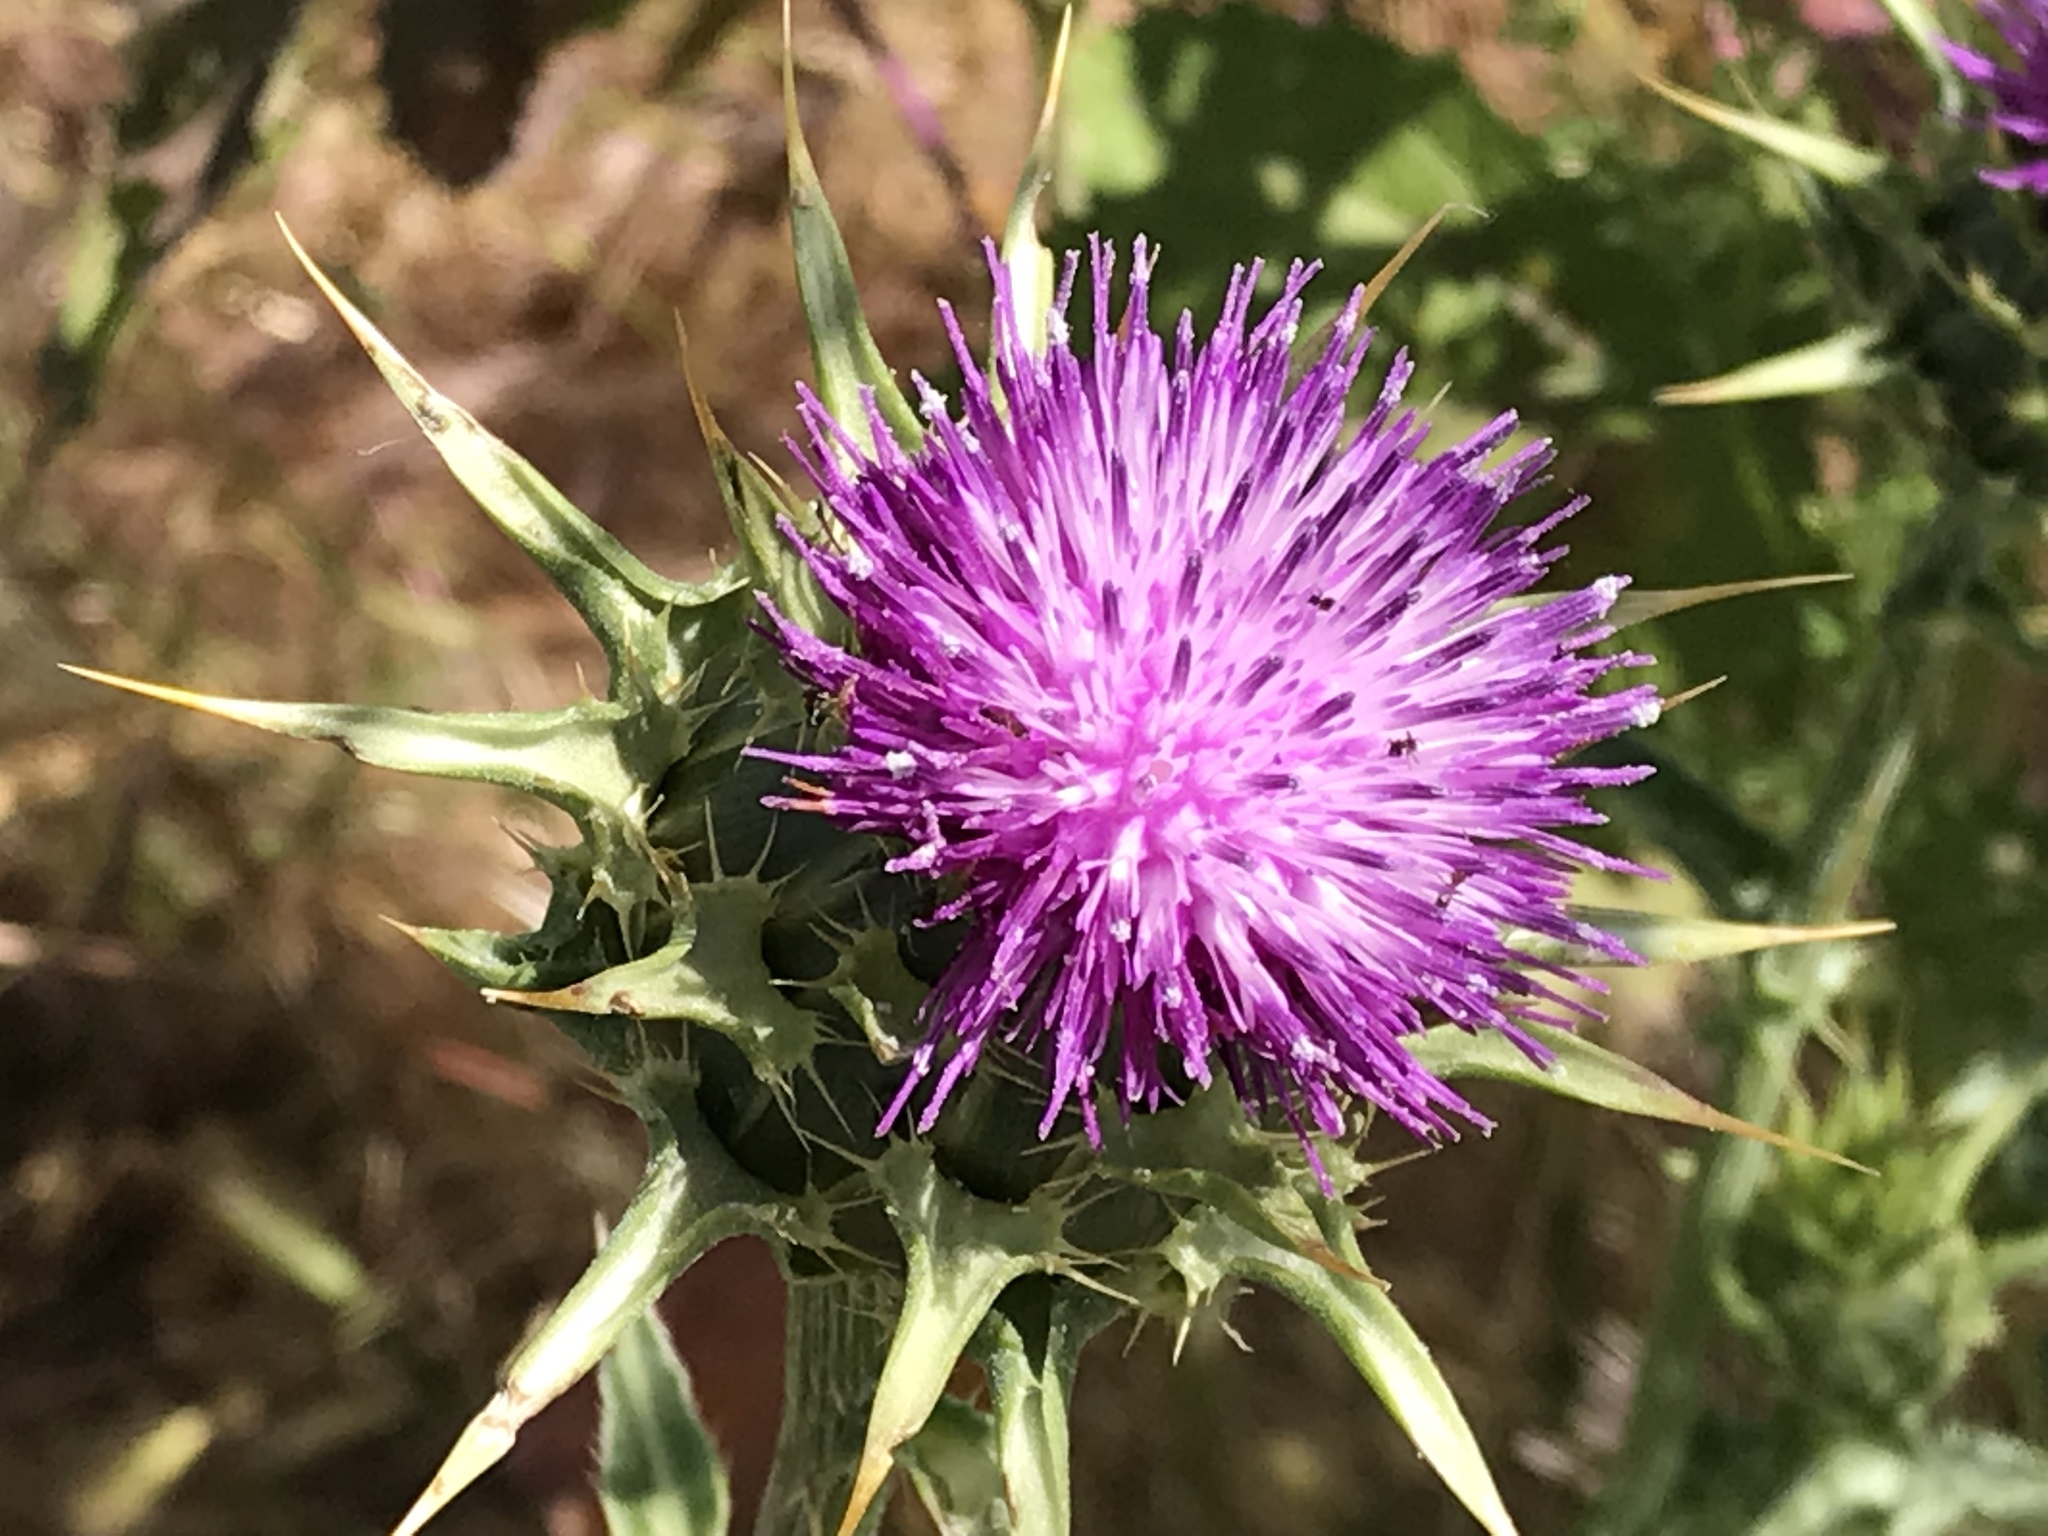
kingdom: Plantae
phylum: Tracheophyta
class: Magnoliopsida
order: Asterales
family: Asteraceae
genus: Silybum
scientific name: Silybum marianum
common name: Milk thistle
